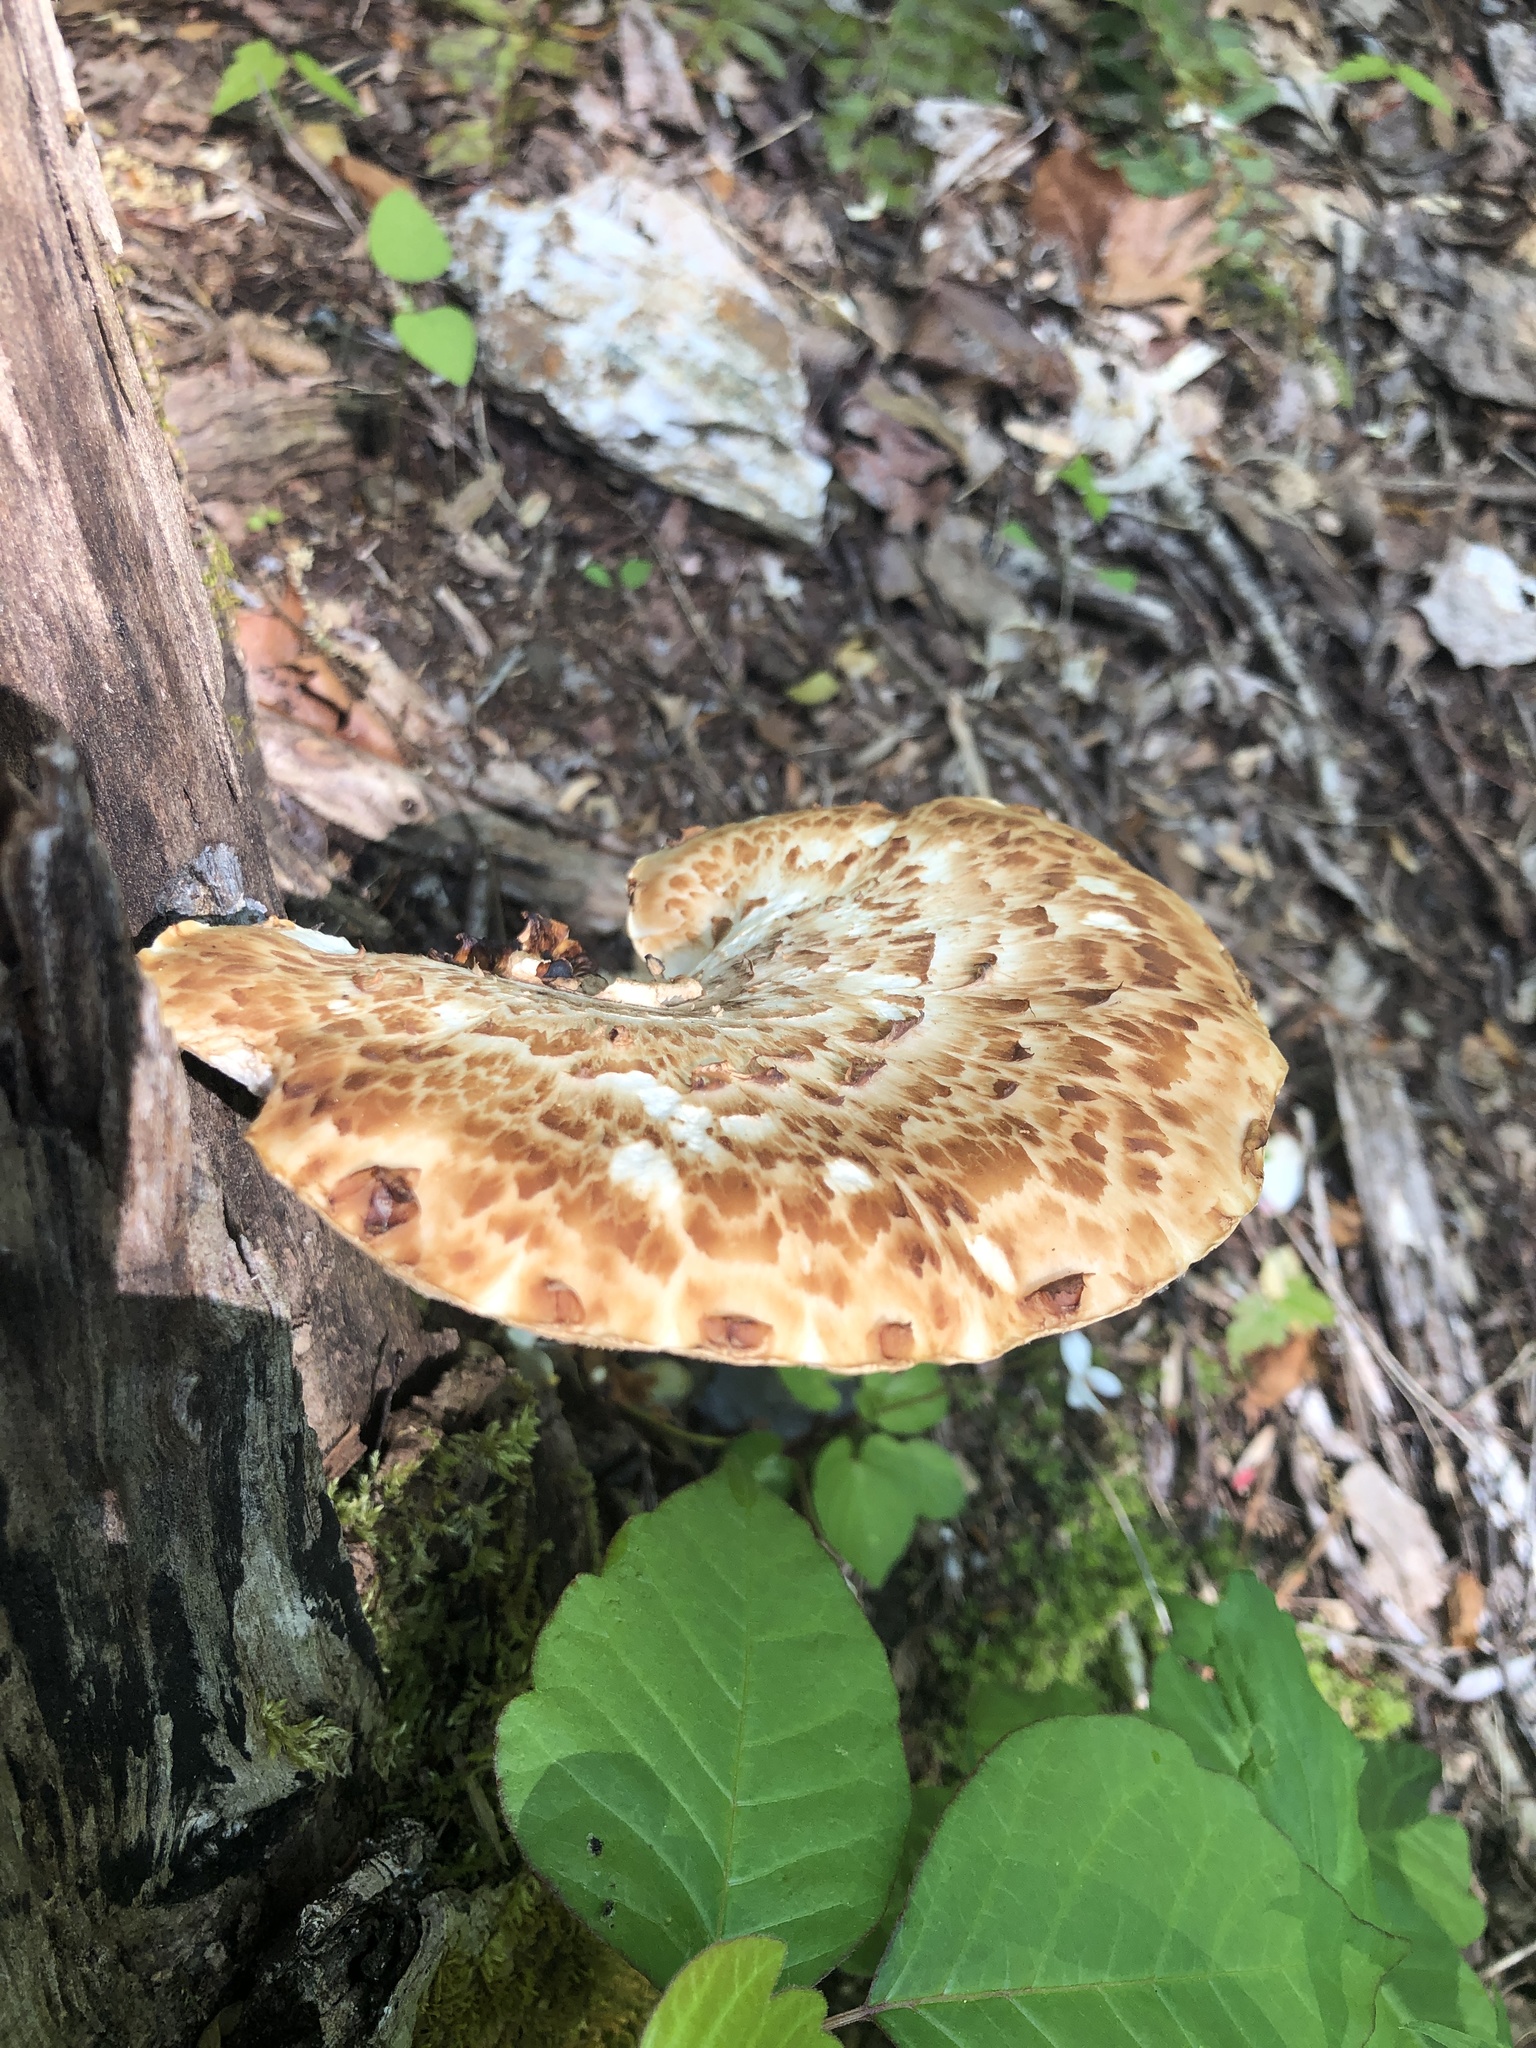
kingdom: Fungi
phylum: Basidiomycota
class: Agaricomycetes
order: Polyporales
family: Polyporaceae
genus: Cerioporus
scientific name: Cerioporus squamosus
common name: Dryad's saddle
